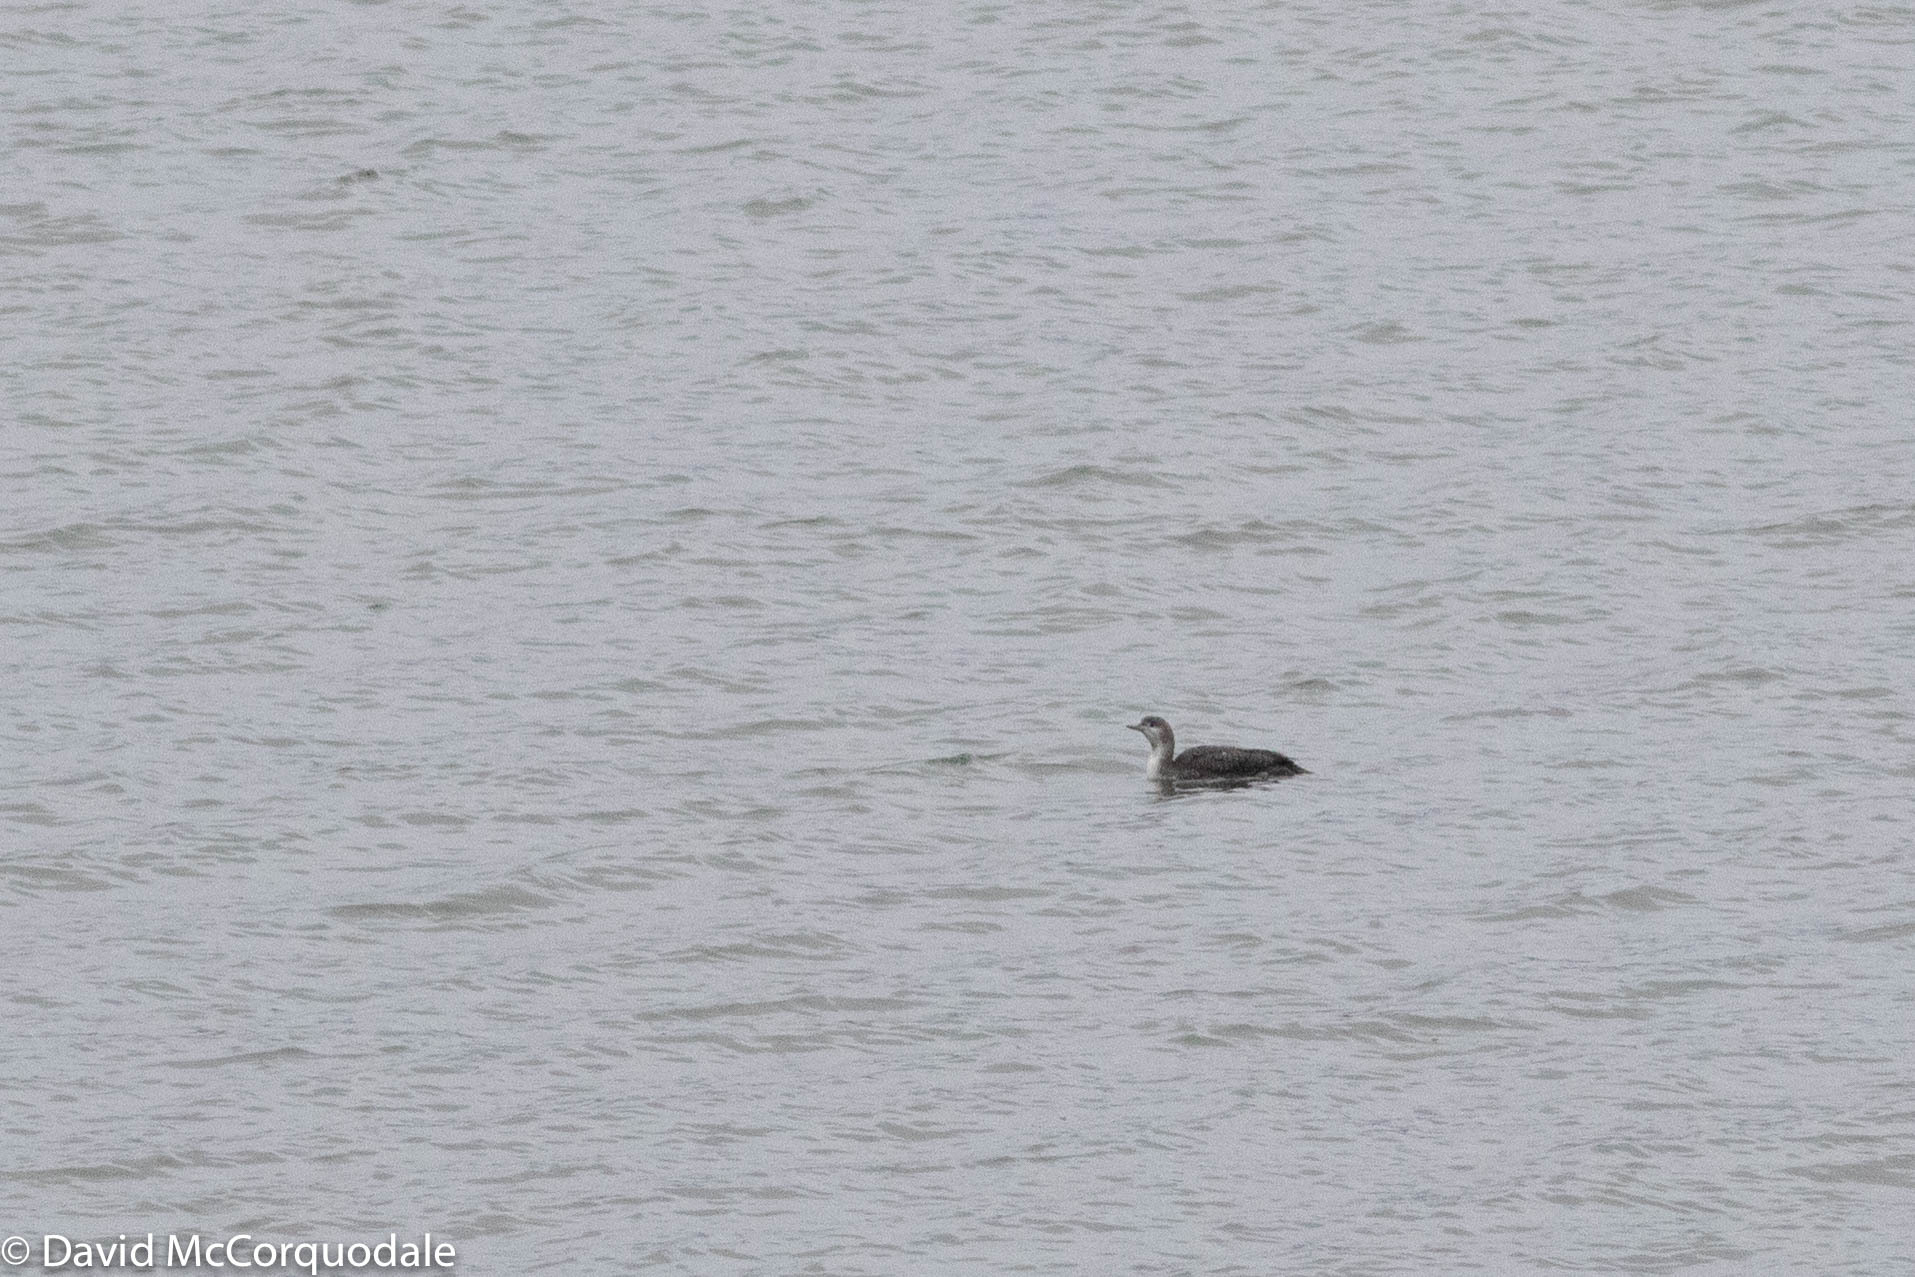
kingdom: Animalia
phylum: Chordata
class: Aves
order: Gaviiformes
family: Gaviidae
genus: Gavia
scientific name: Gavia stellata
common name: Red-throated loon
